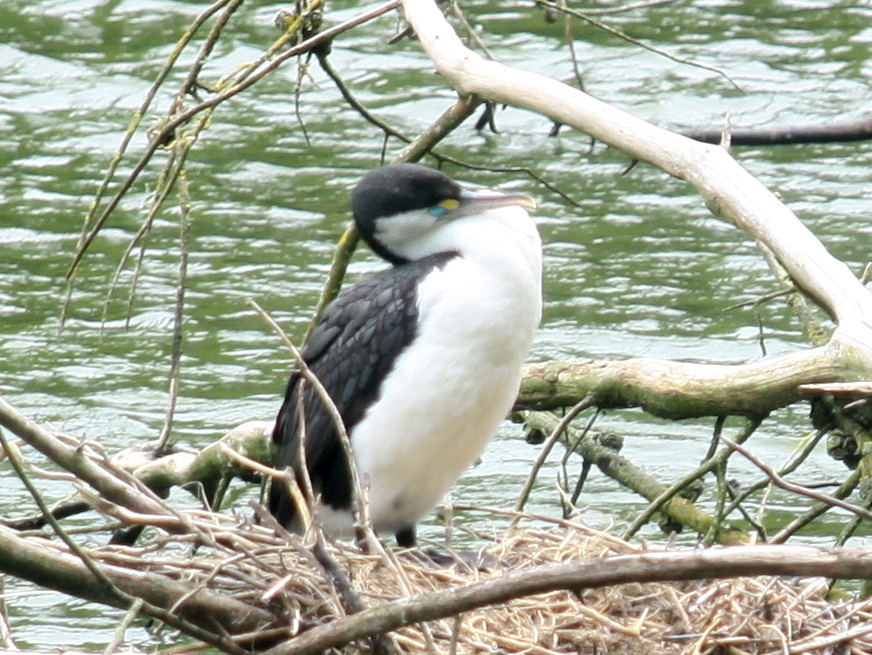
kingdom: Animalia
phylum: Chordata
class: Aves
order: Suliformes
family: Phalacrocoracidae
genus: Phalacrocorax
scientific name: Phalacrocorax varius
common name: Pied cormorant
